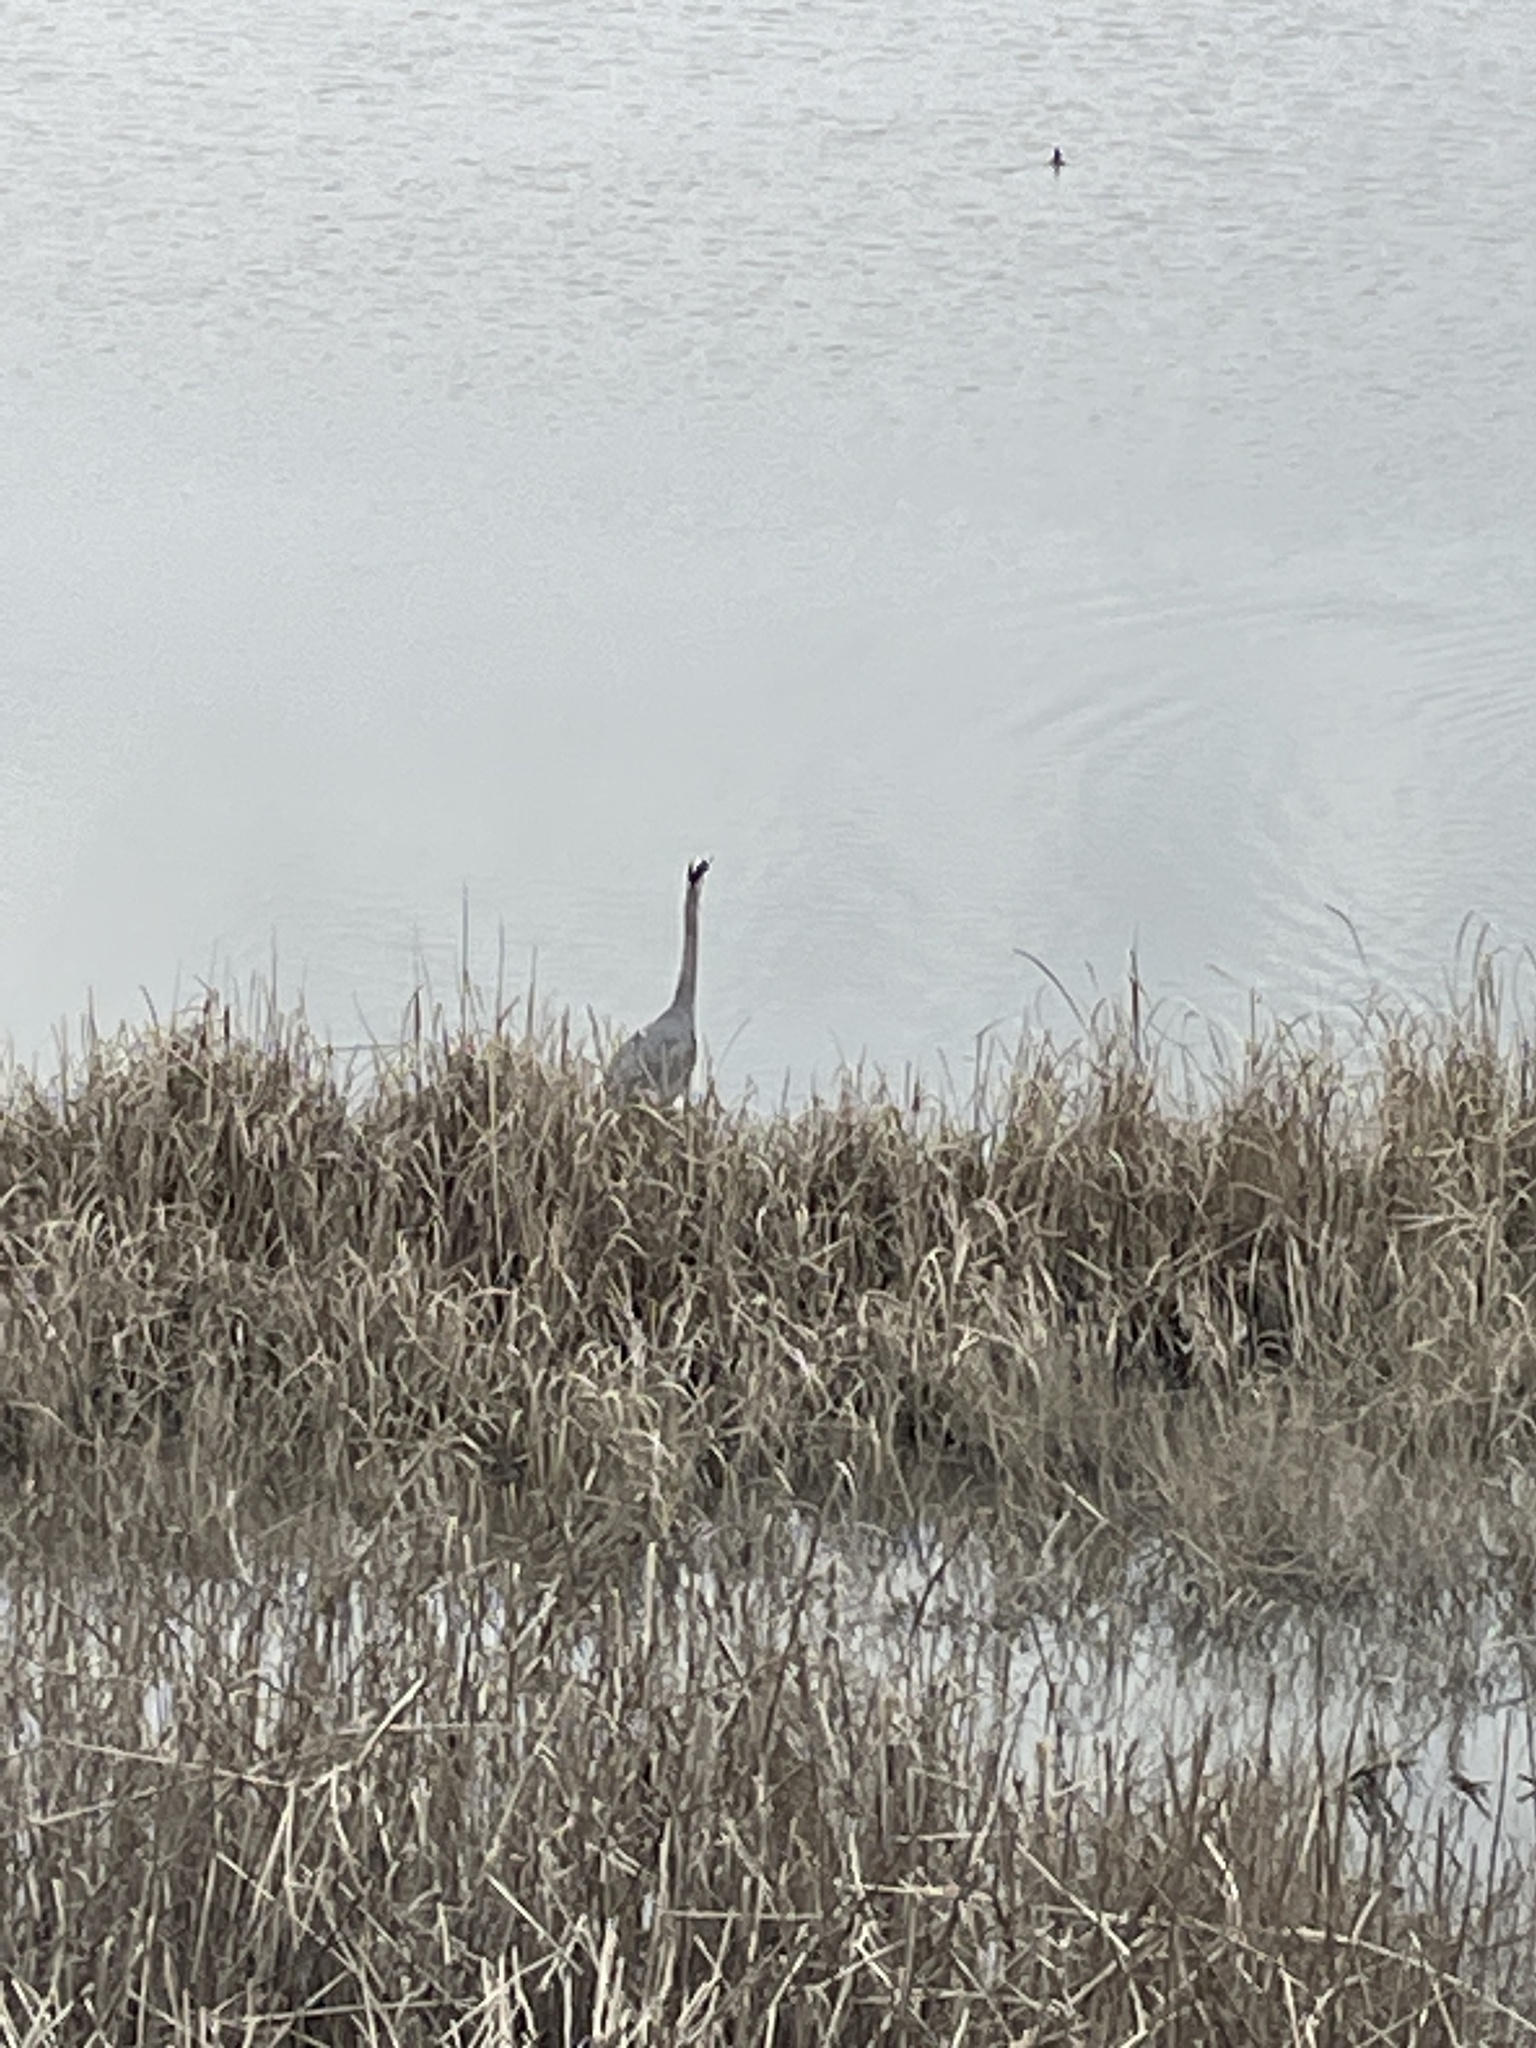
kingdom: Animalia
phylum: Chordata
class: Aves
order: Pelecaniformes
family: Ardeidae
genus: Ardea
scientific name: Ardea herodias
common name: Great blue heron
